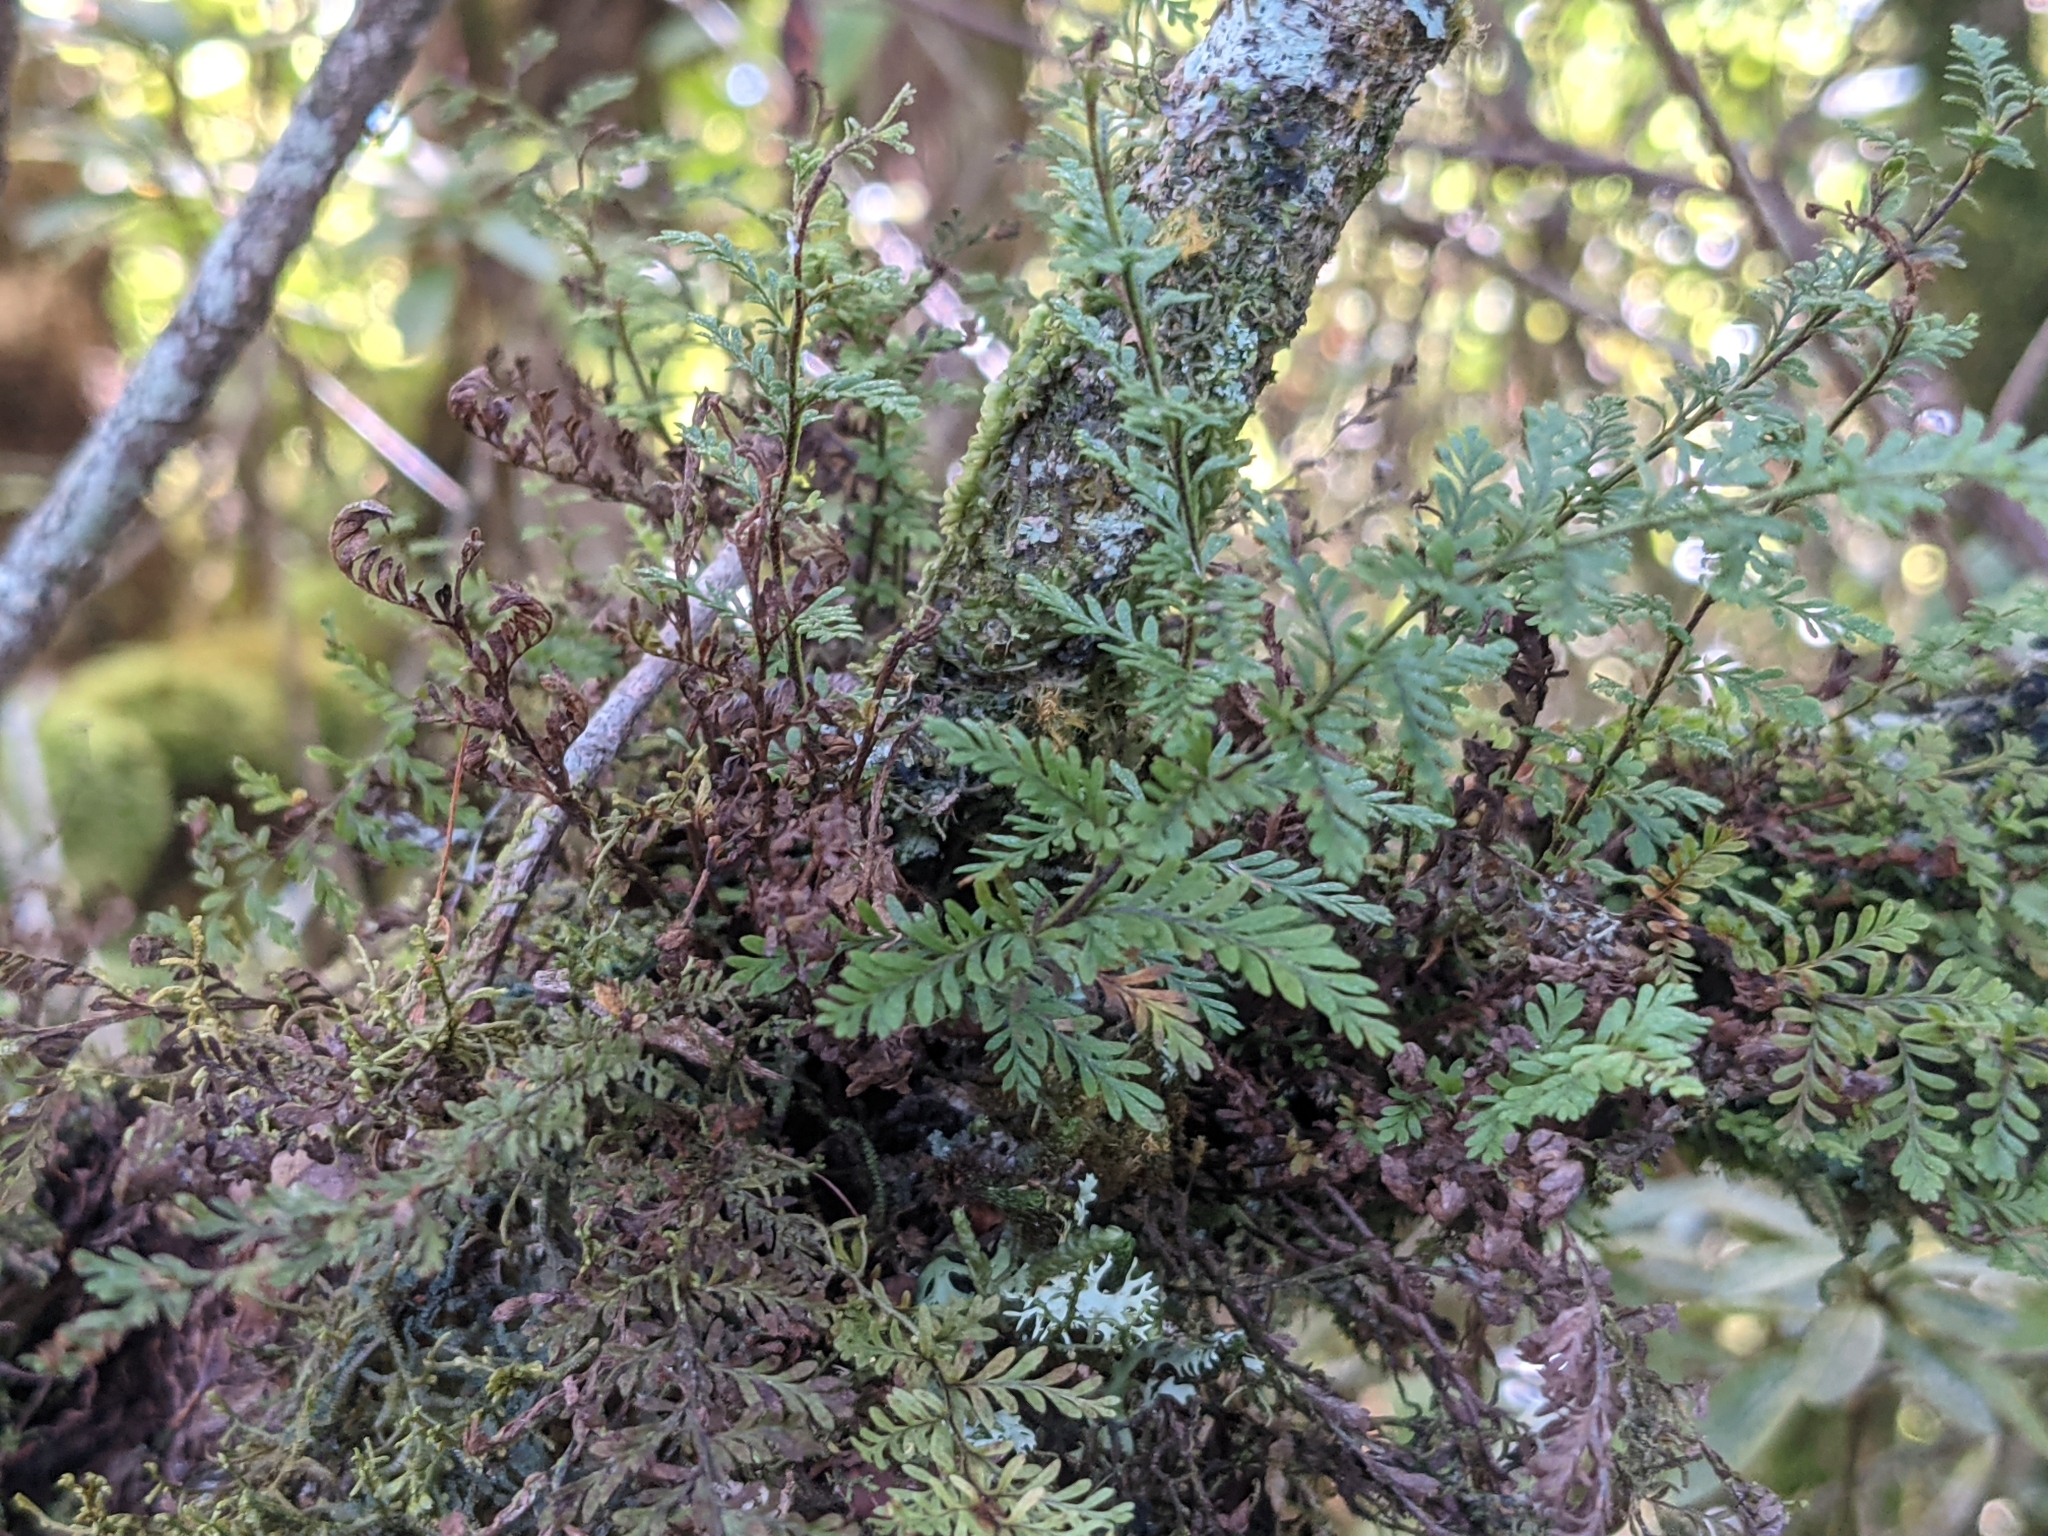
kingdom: Plantae
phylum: Tracheophyta
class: Polypodiopsida
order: Polypodiales
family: Polypodiaceae
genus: Adenophorus
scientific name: Adenophorus tamariscinus
